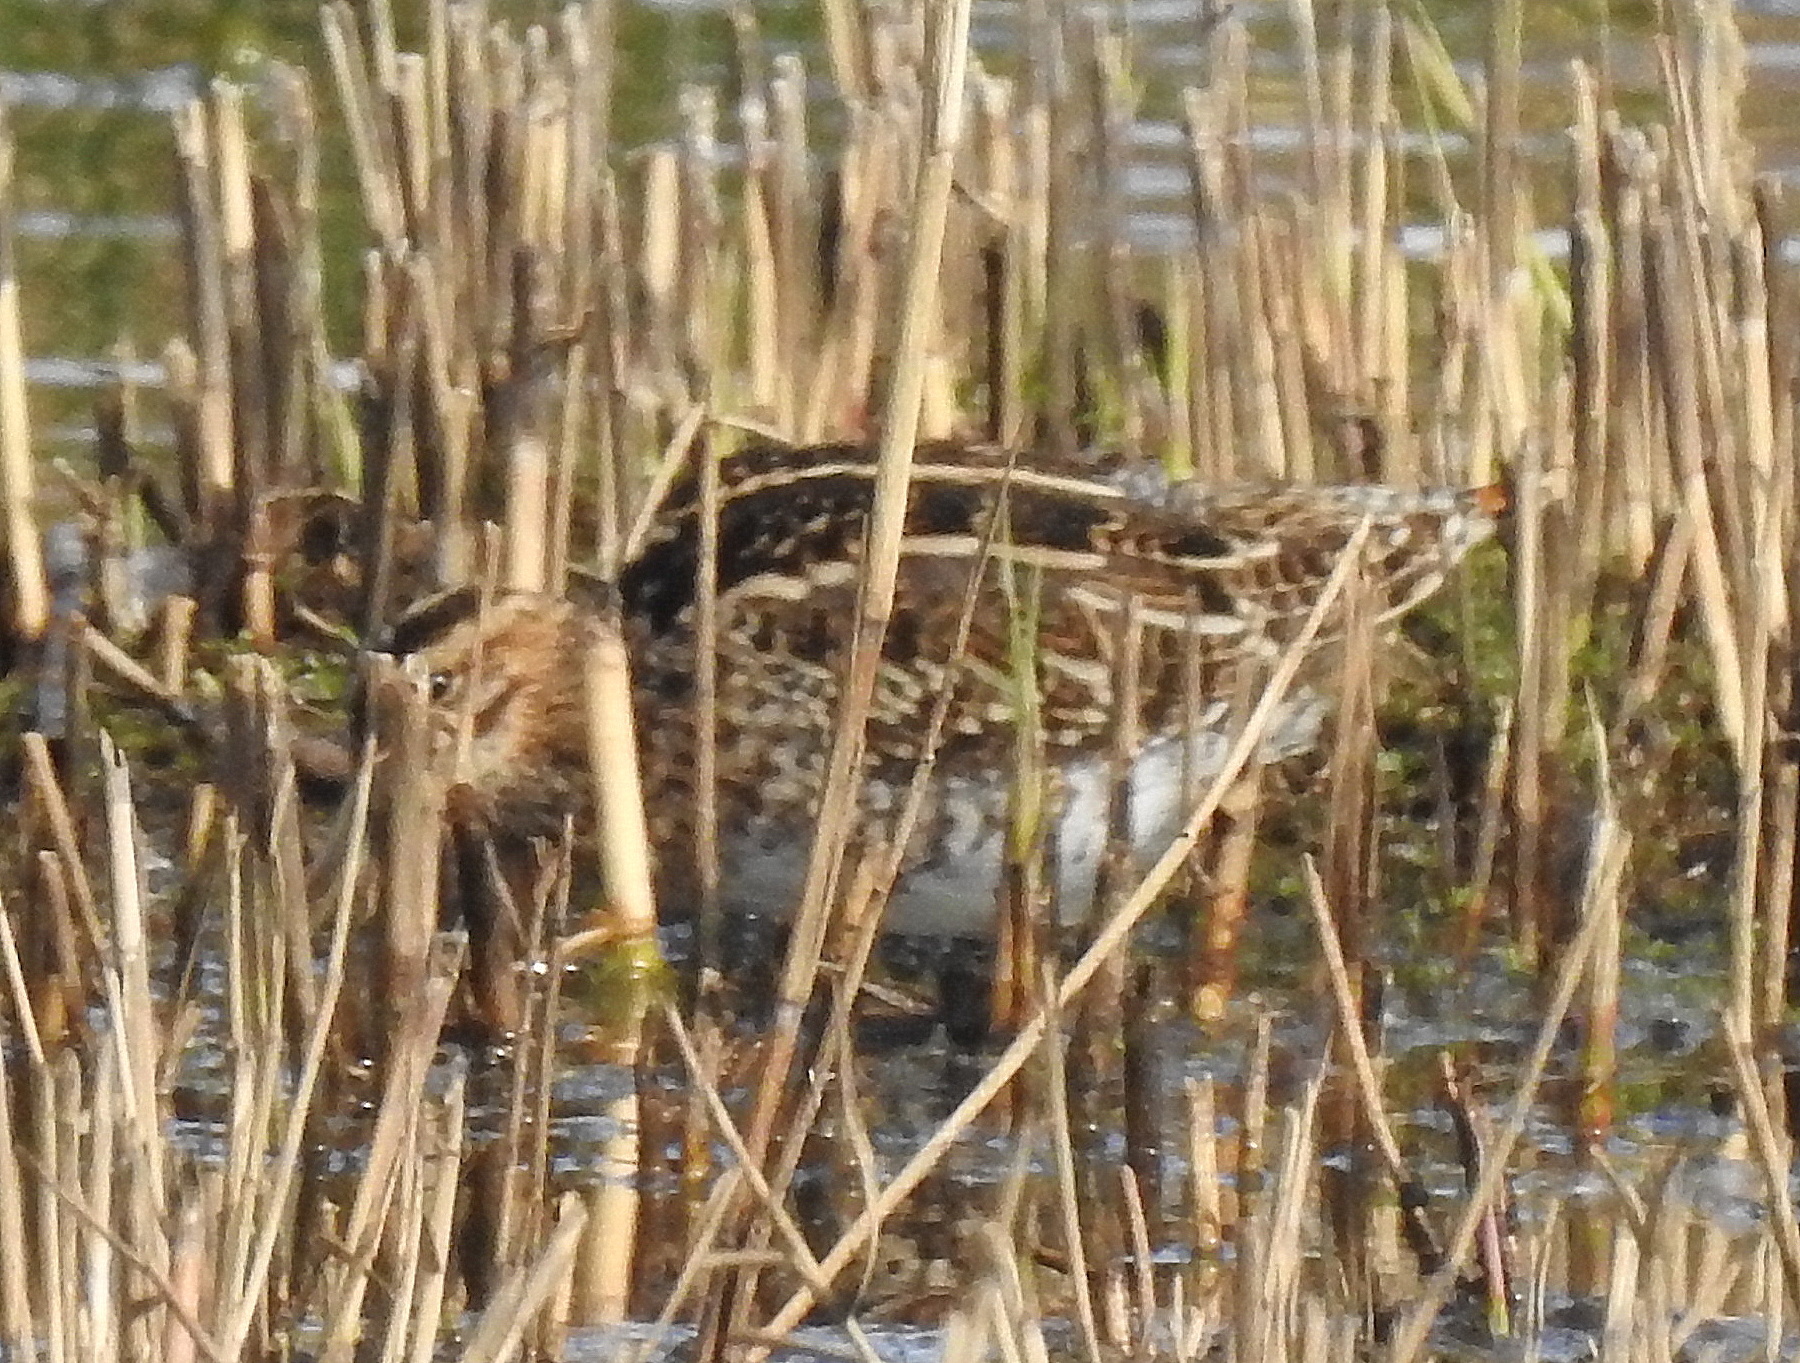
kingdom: Animalia
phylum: Chordata
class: Aves
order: Charadriiformes
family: Scolopacidae
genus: Gallinago
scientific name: Gallinago gallinago
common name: Common snipe
